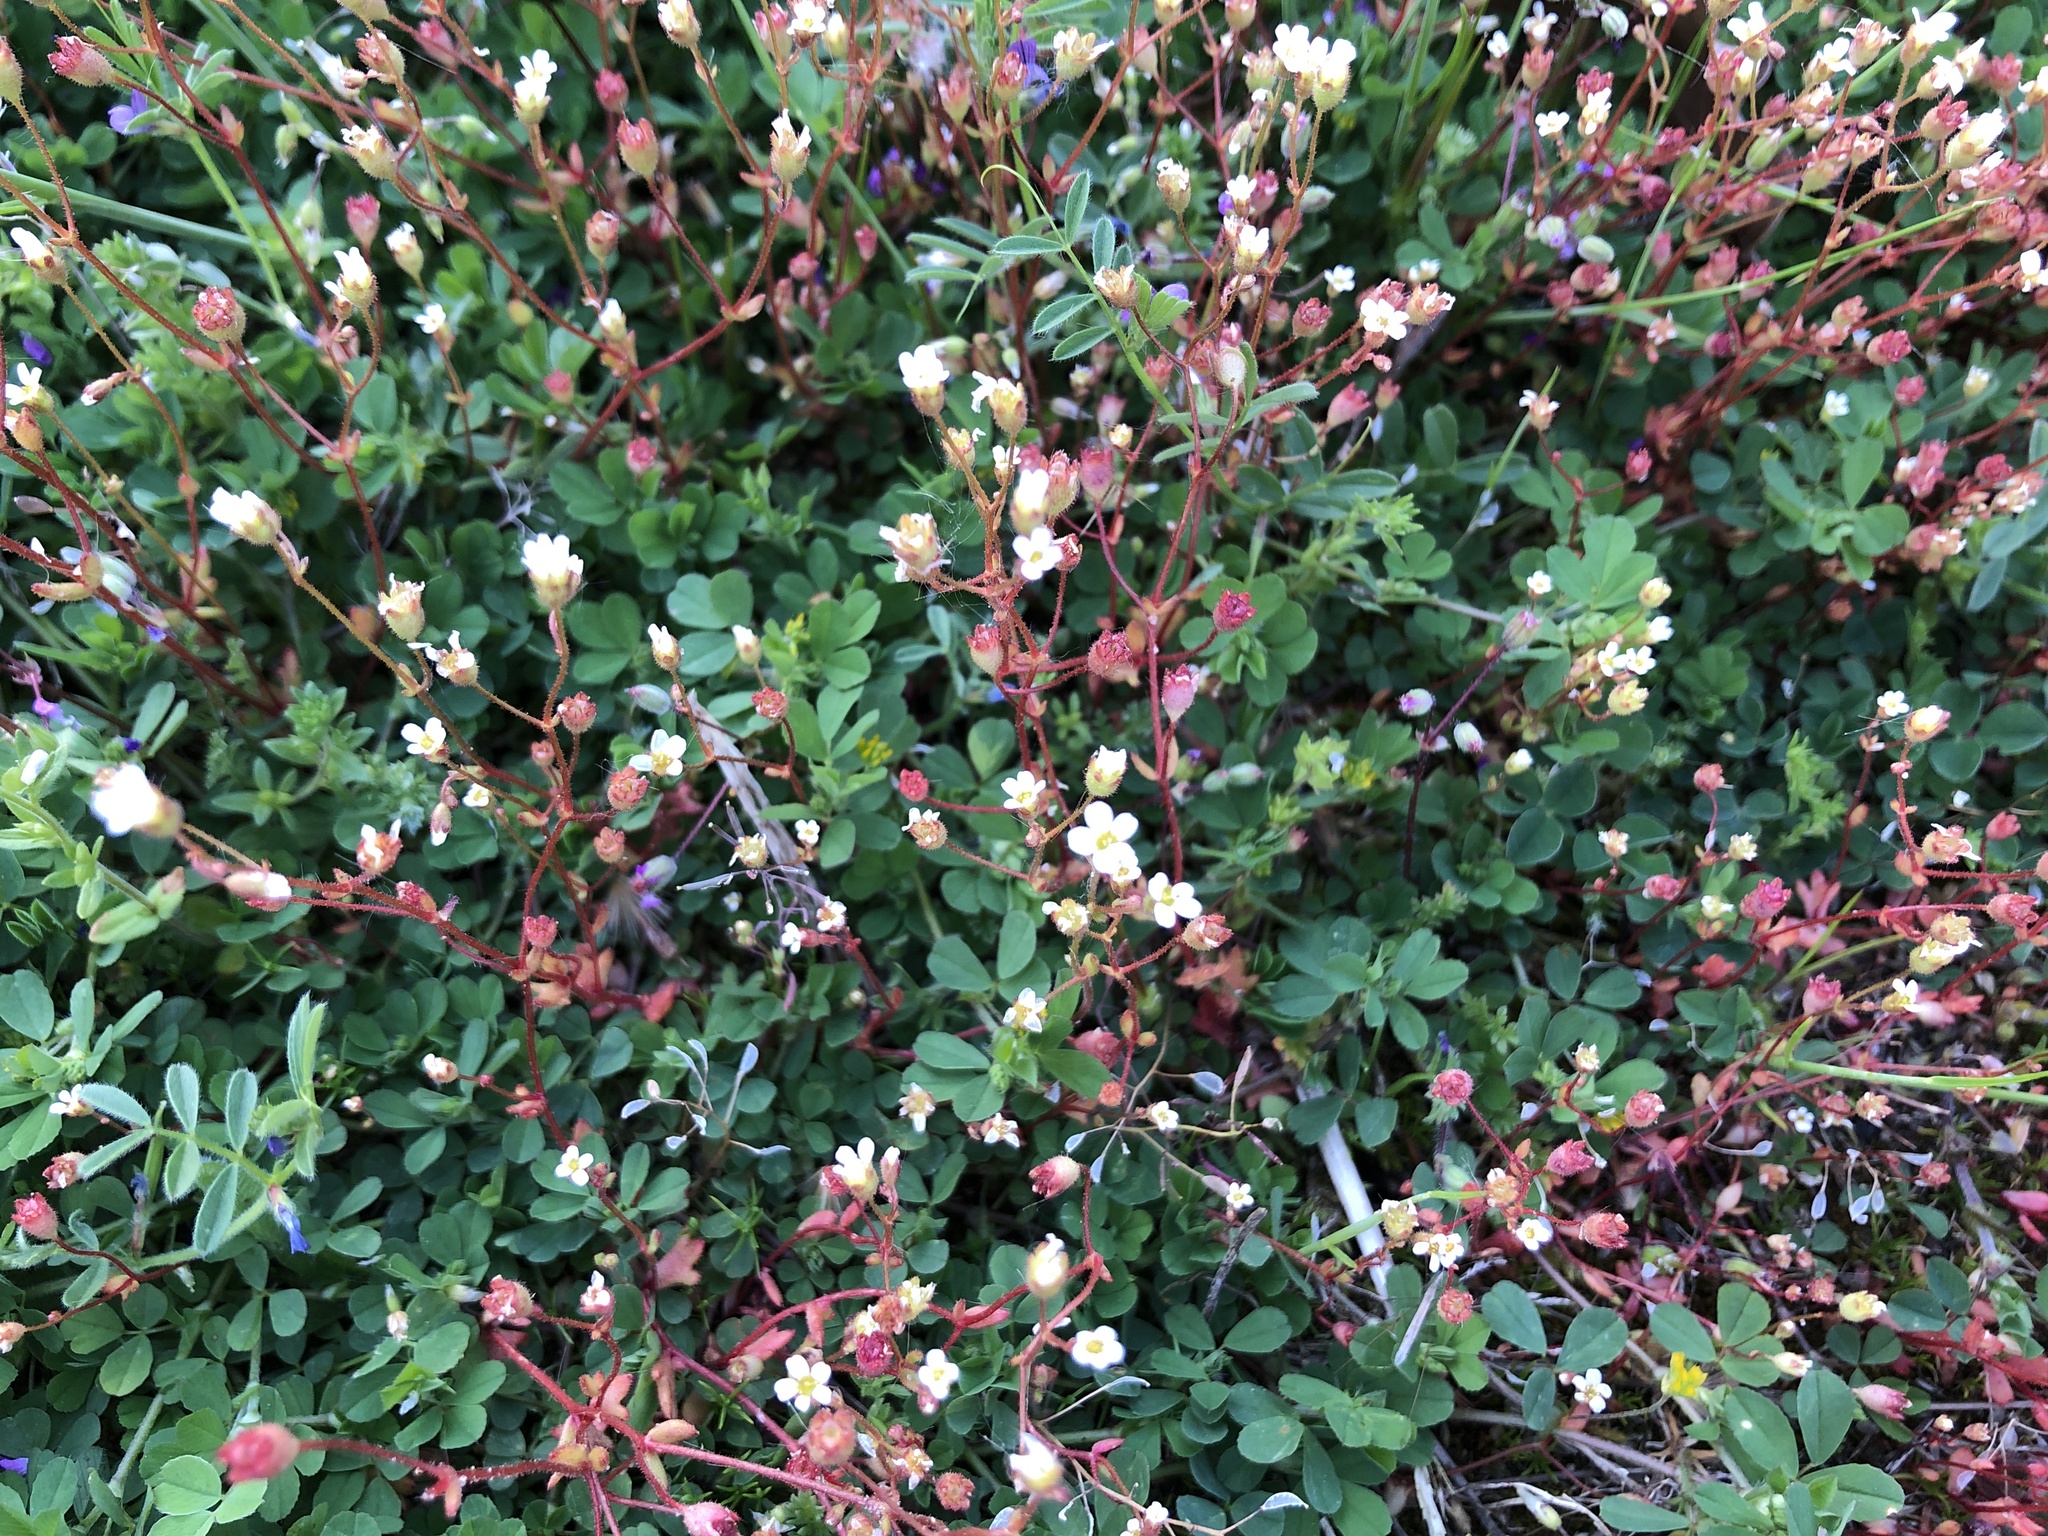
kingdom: Plantae
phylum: Tracheophyta
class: Magnoliopsida
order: Saxifragales
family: Saxifragaceae
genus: Saxifraga
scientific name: Saxifraga tridactylites
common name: Rue-leaved saxifrage
